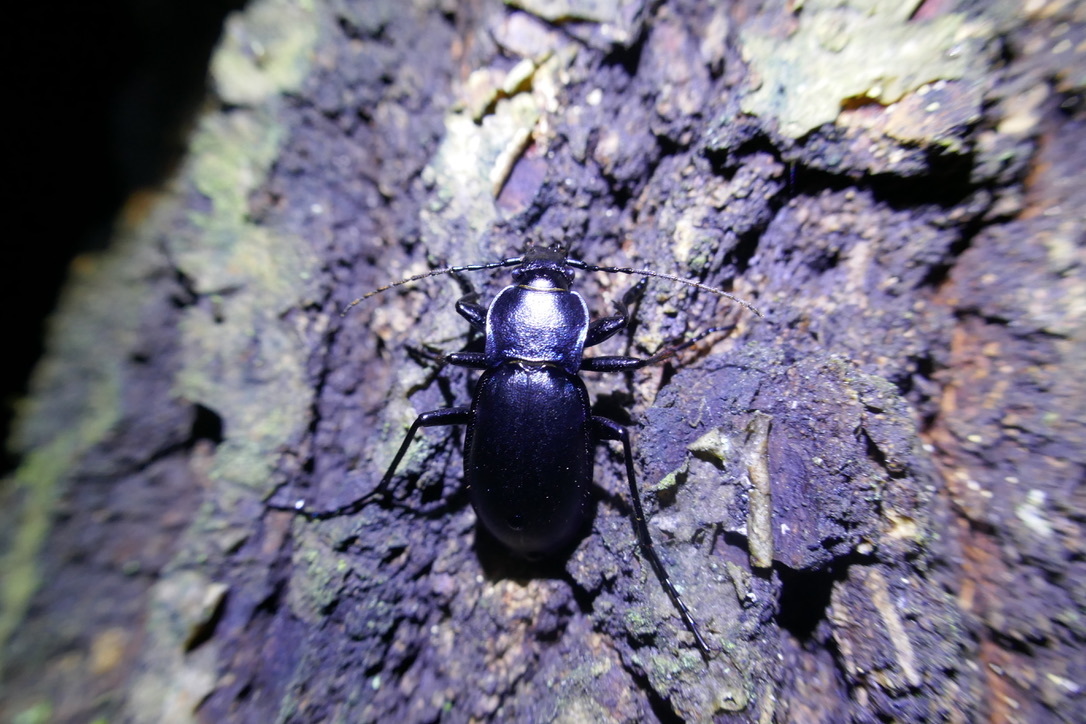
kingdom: Animalia
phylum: Arthropoda
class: Insecta
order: Coleoptera
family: Carabidae
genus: Carabus
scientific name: Carabus glabratus
